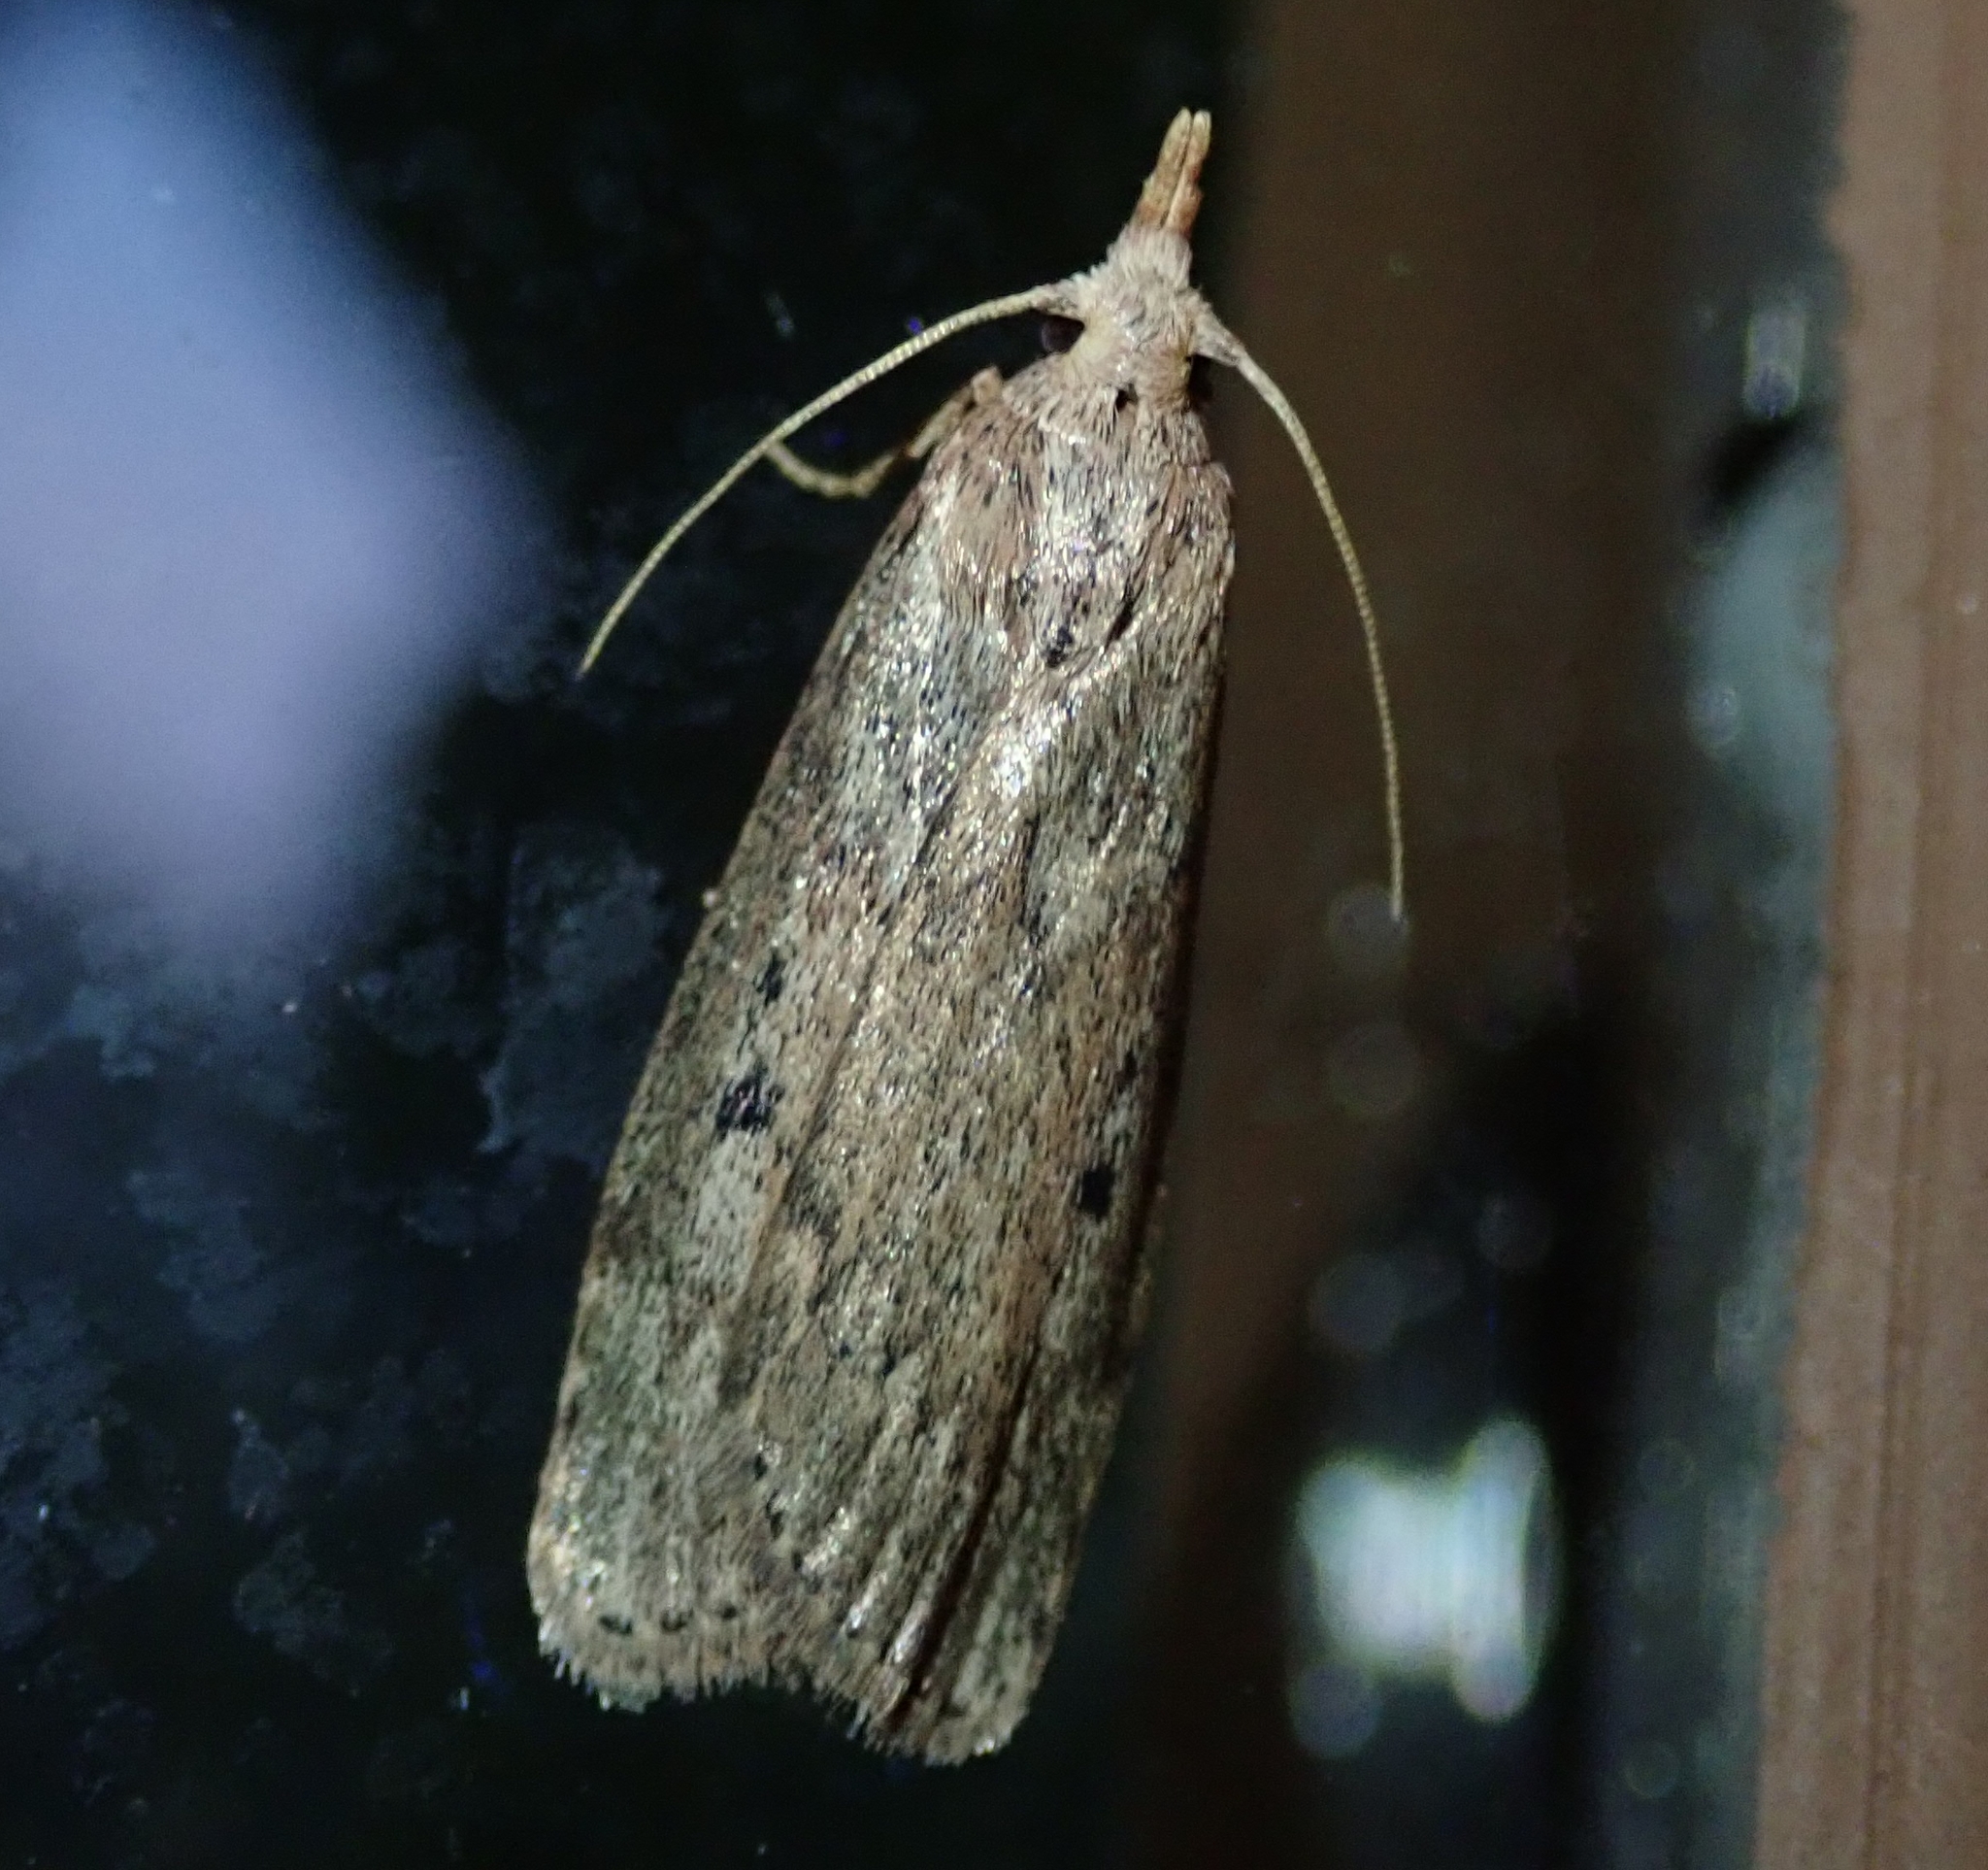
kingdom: Animalia
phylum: Arthropoda
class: Insecta
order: Lepidoptera
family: Pyralidae
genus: Aphomia
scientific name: Aphomia sociella
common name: Bee moth
